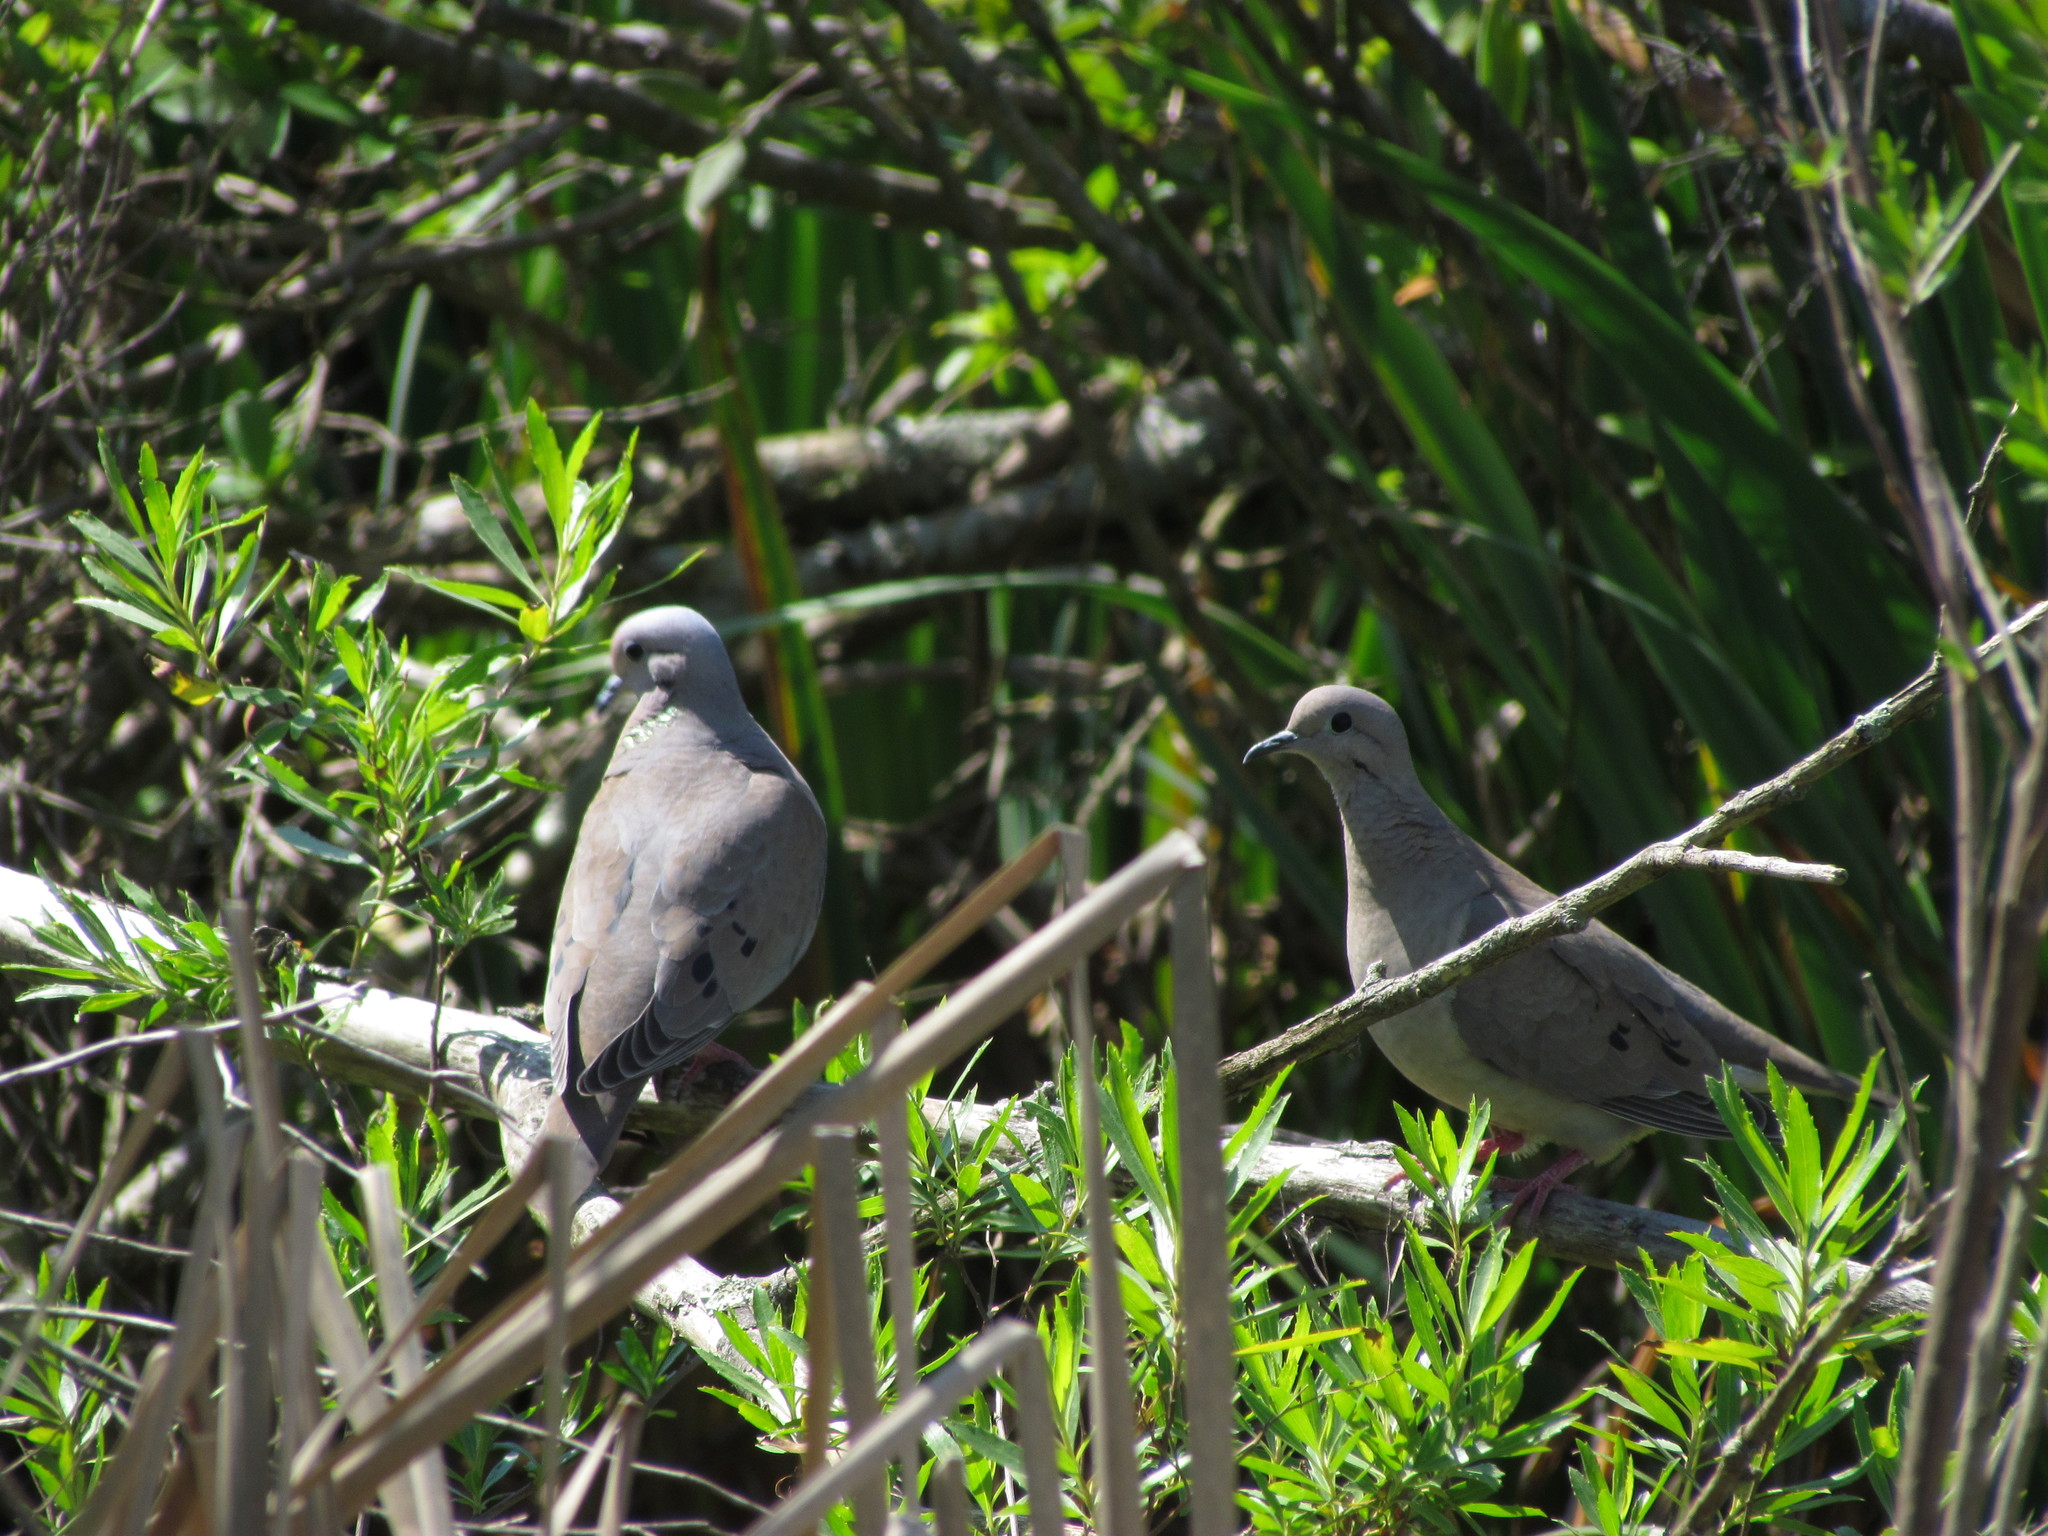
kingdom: Animalia
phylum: Chordata
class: Aves
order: Columbiformes
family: Columbidae
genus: Zenaida
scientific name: Zenaida auriculata
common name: Eared dove
